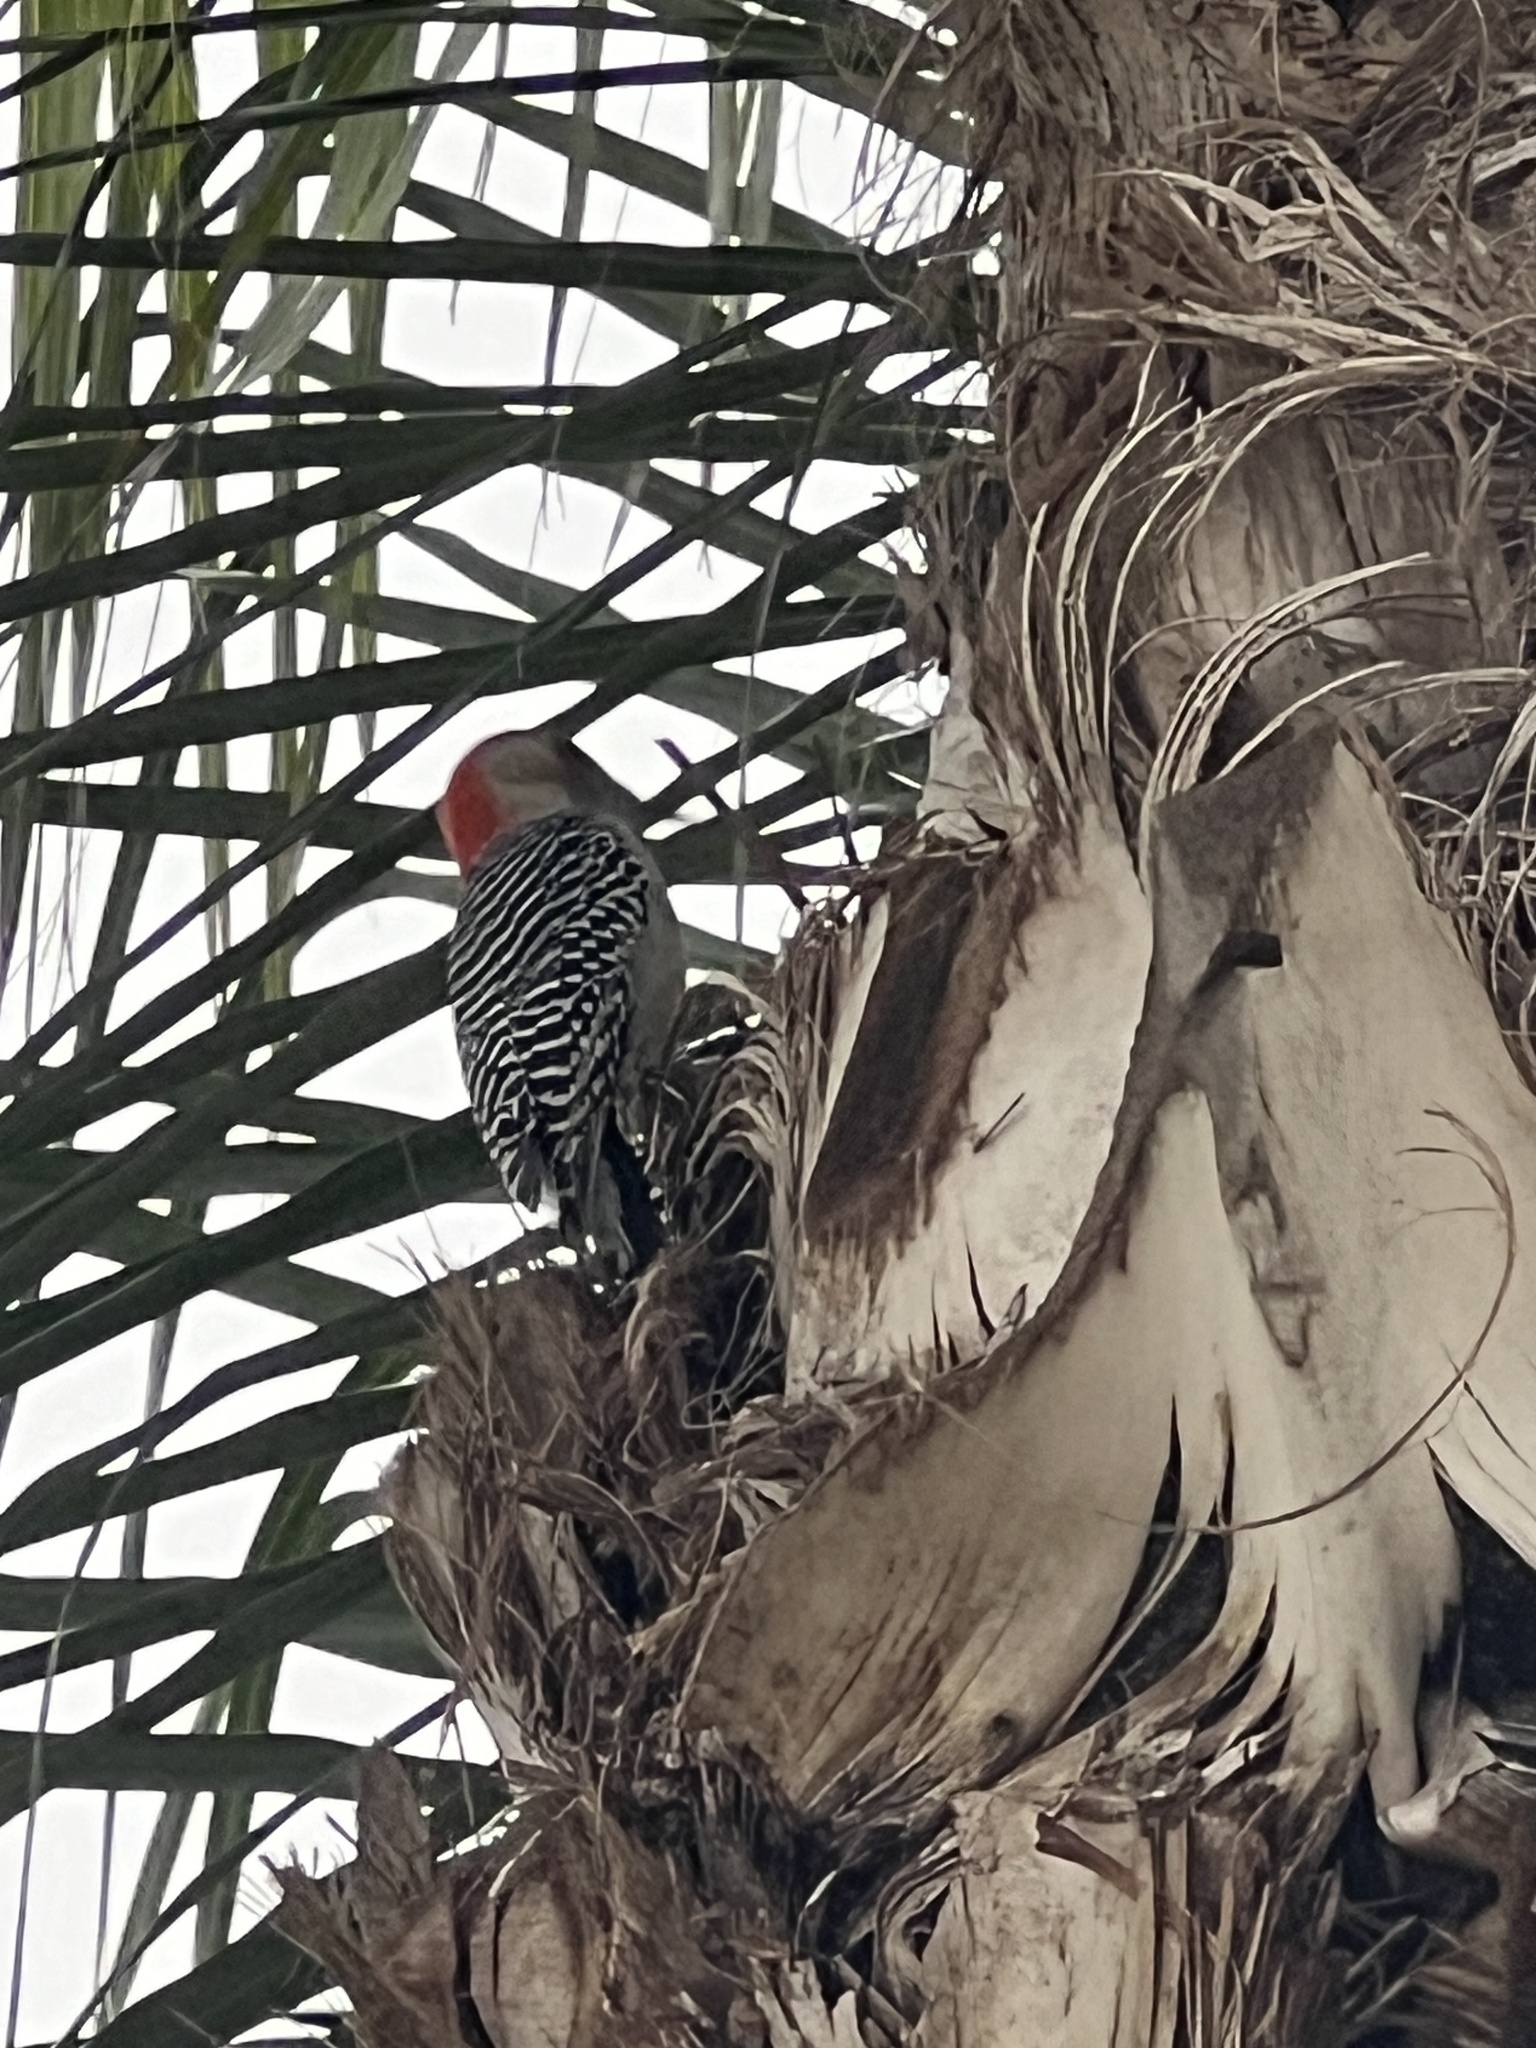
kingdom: Animalia
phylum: Chordata
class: Aves
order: Piciformes
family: Picidae
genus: Melanerpes
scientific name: Melanerpes carolinus
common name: Red-bellied woodpecker
